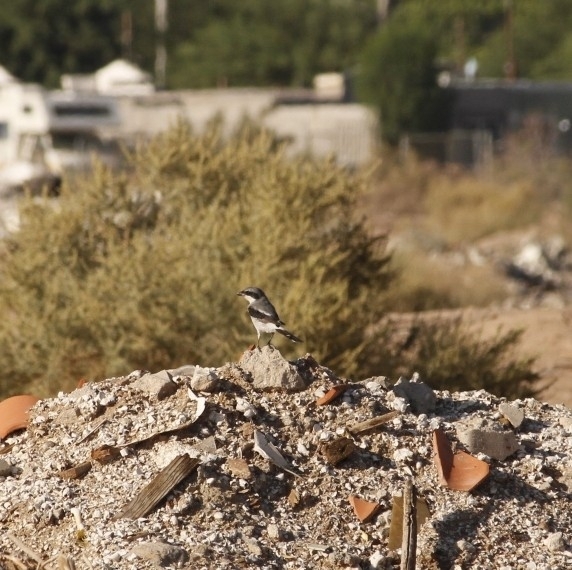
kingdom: Animalia
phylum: Chordata
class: Aves
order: Passeriformes
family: Laniidae
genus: Lanius
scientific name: Lanius ludovicianus
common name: Loggerhead shrike
